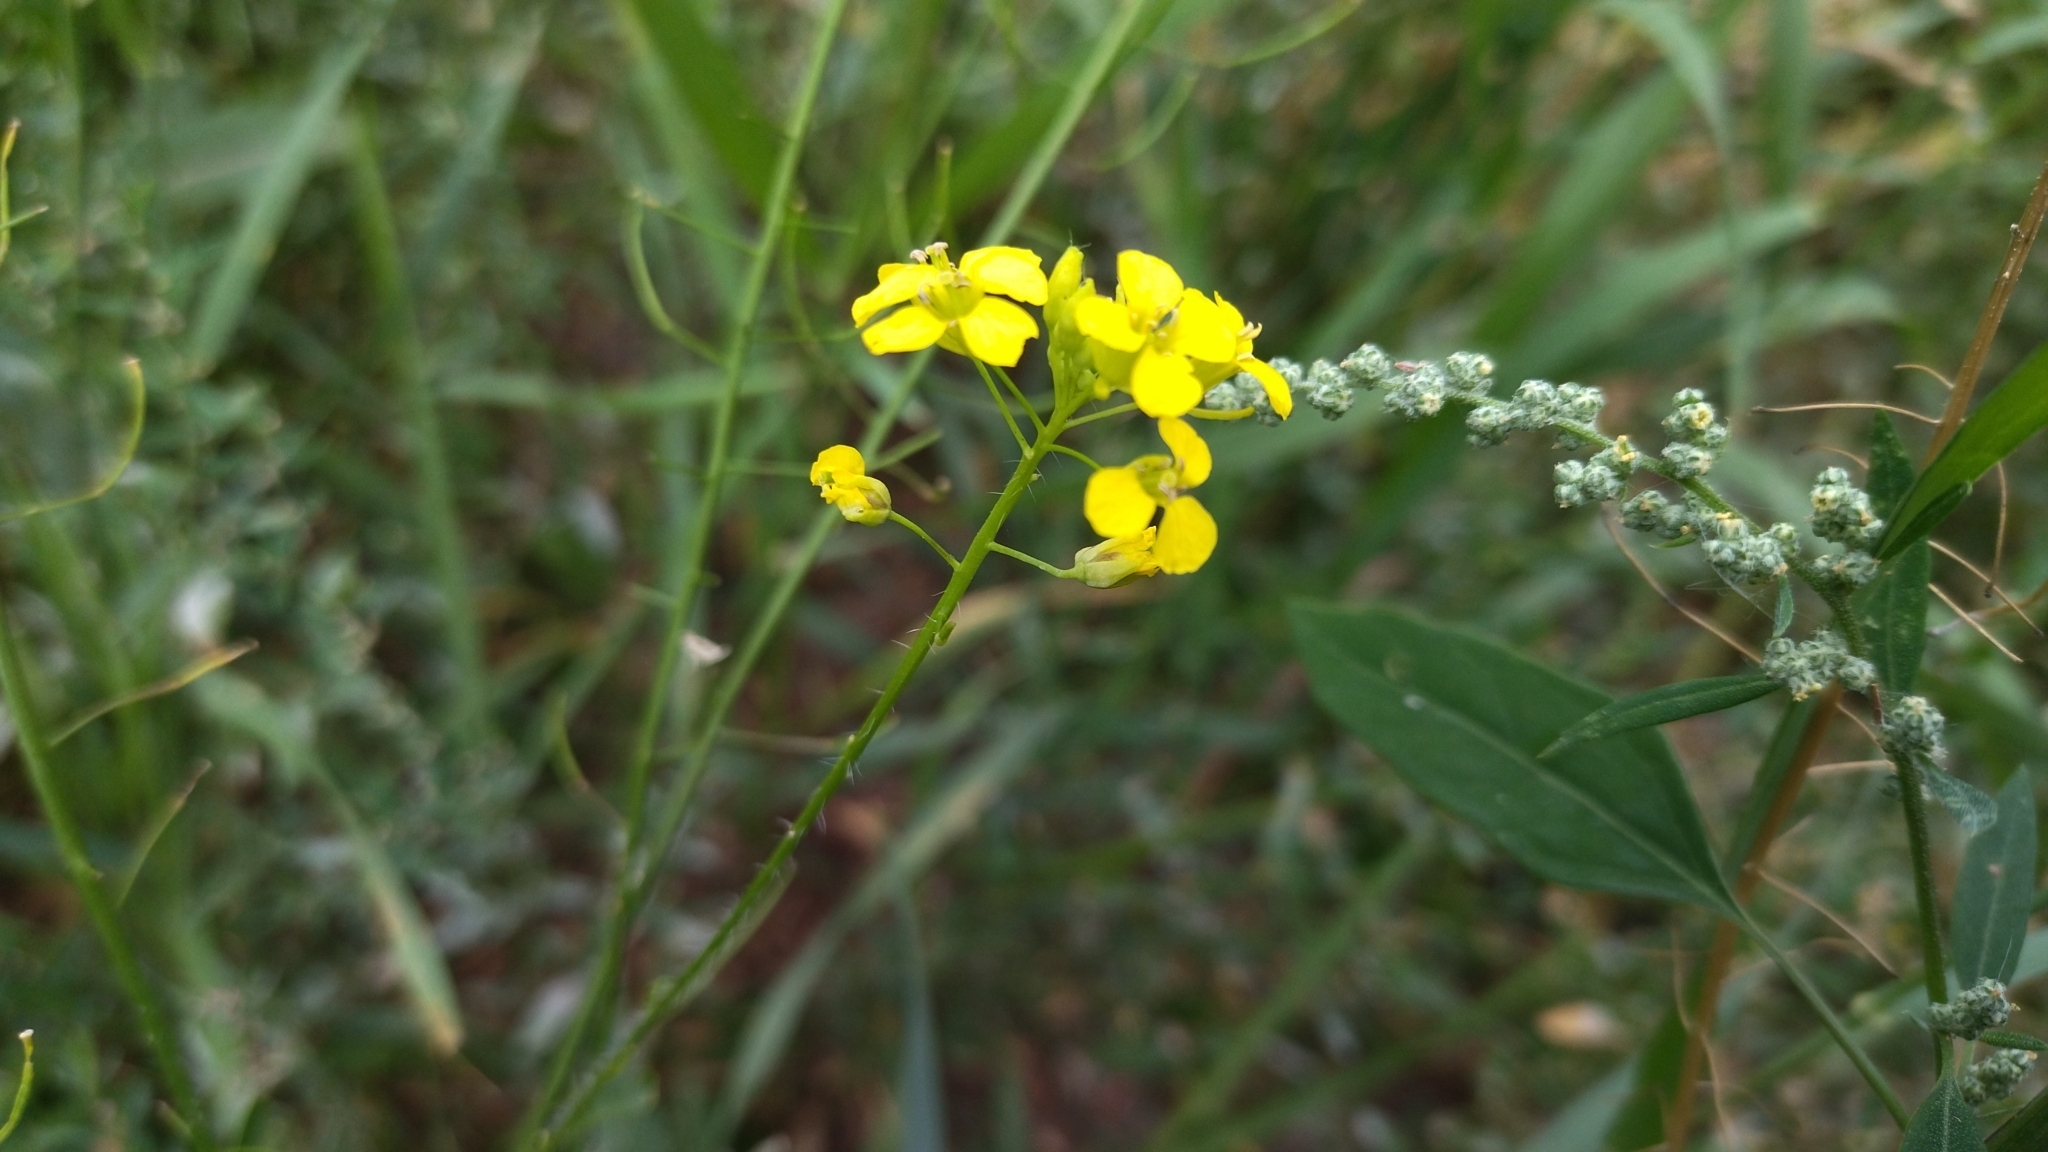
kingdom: Plantae
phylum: Tracheophyta
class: Magnoliopsida
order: Brassicales
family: Brassicaceae
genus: Sisymbrium
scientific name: Sisymbrium loeselii
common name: False london-rocket
